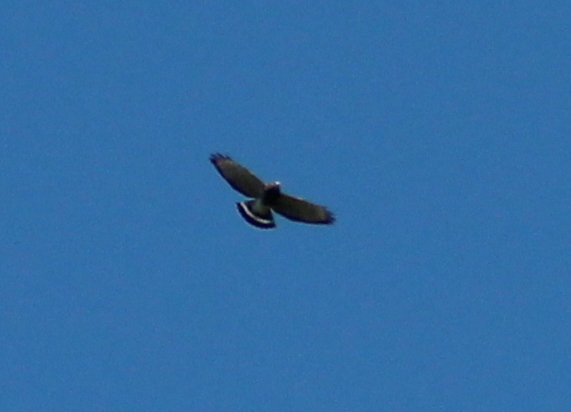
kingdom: Animalia
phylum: Chordata
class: Aves
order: Accipitriformes
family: Accipitridae
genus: Buteo
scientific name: Buteo platypterus
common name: Broad-winged hawk
